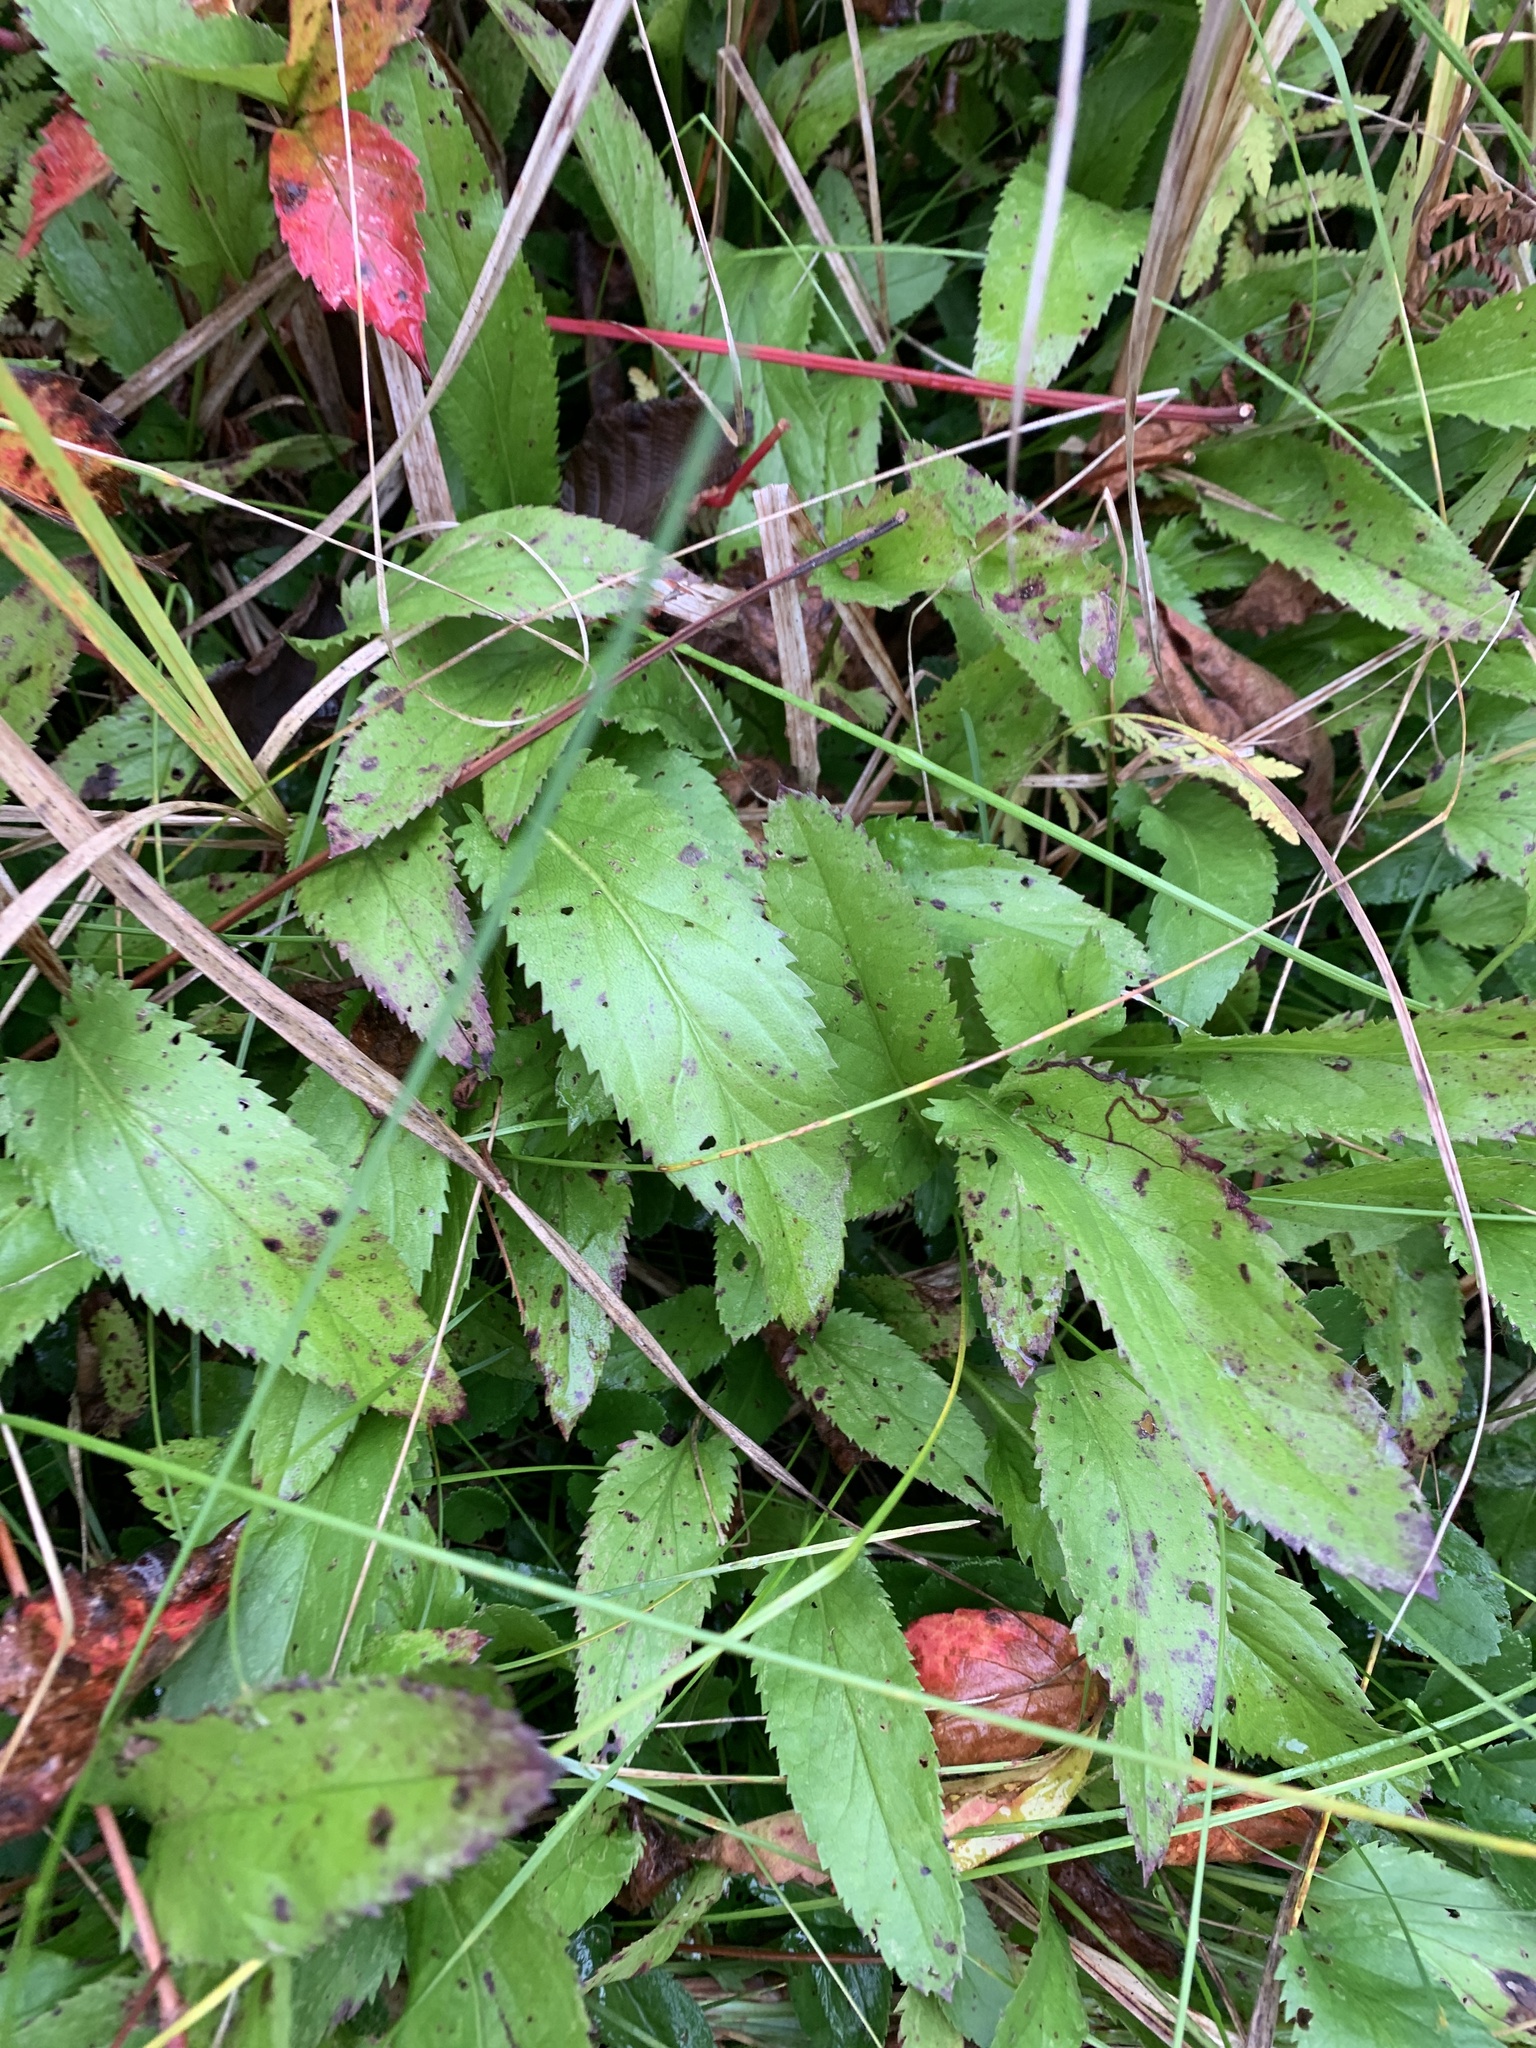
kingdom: Plantae
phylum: Tracheophyta
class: Magnoliopsida
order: Asterales
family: Asteraceae
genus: Packera
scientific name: Packera schweinitziana
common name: Schweinitz's ragwort
